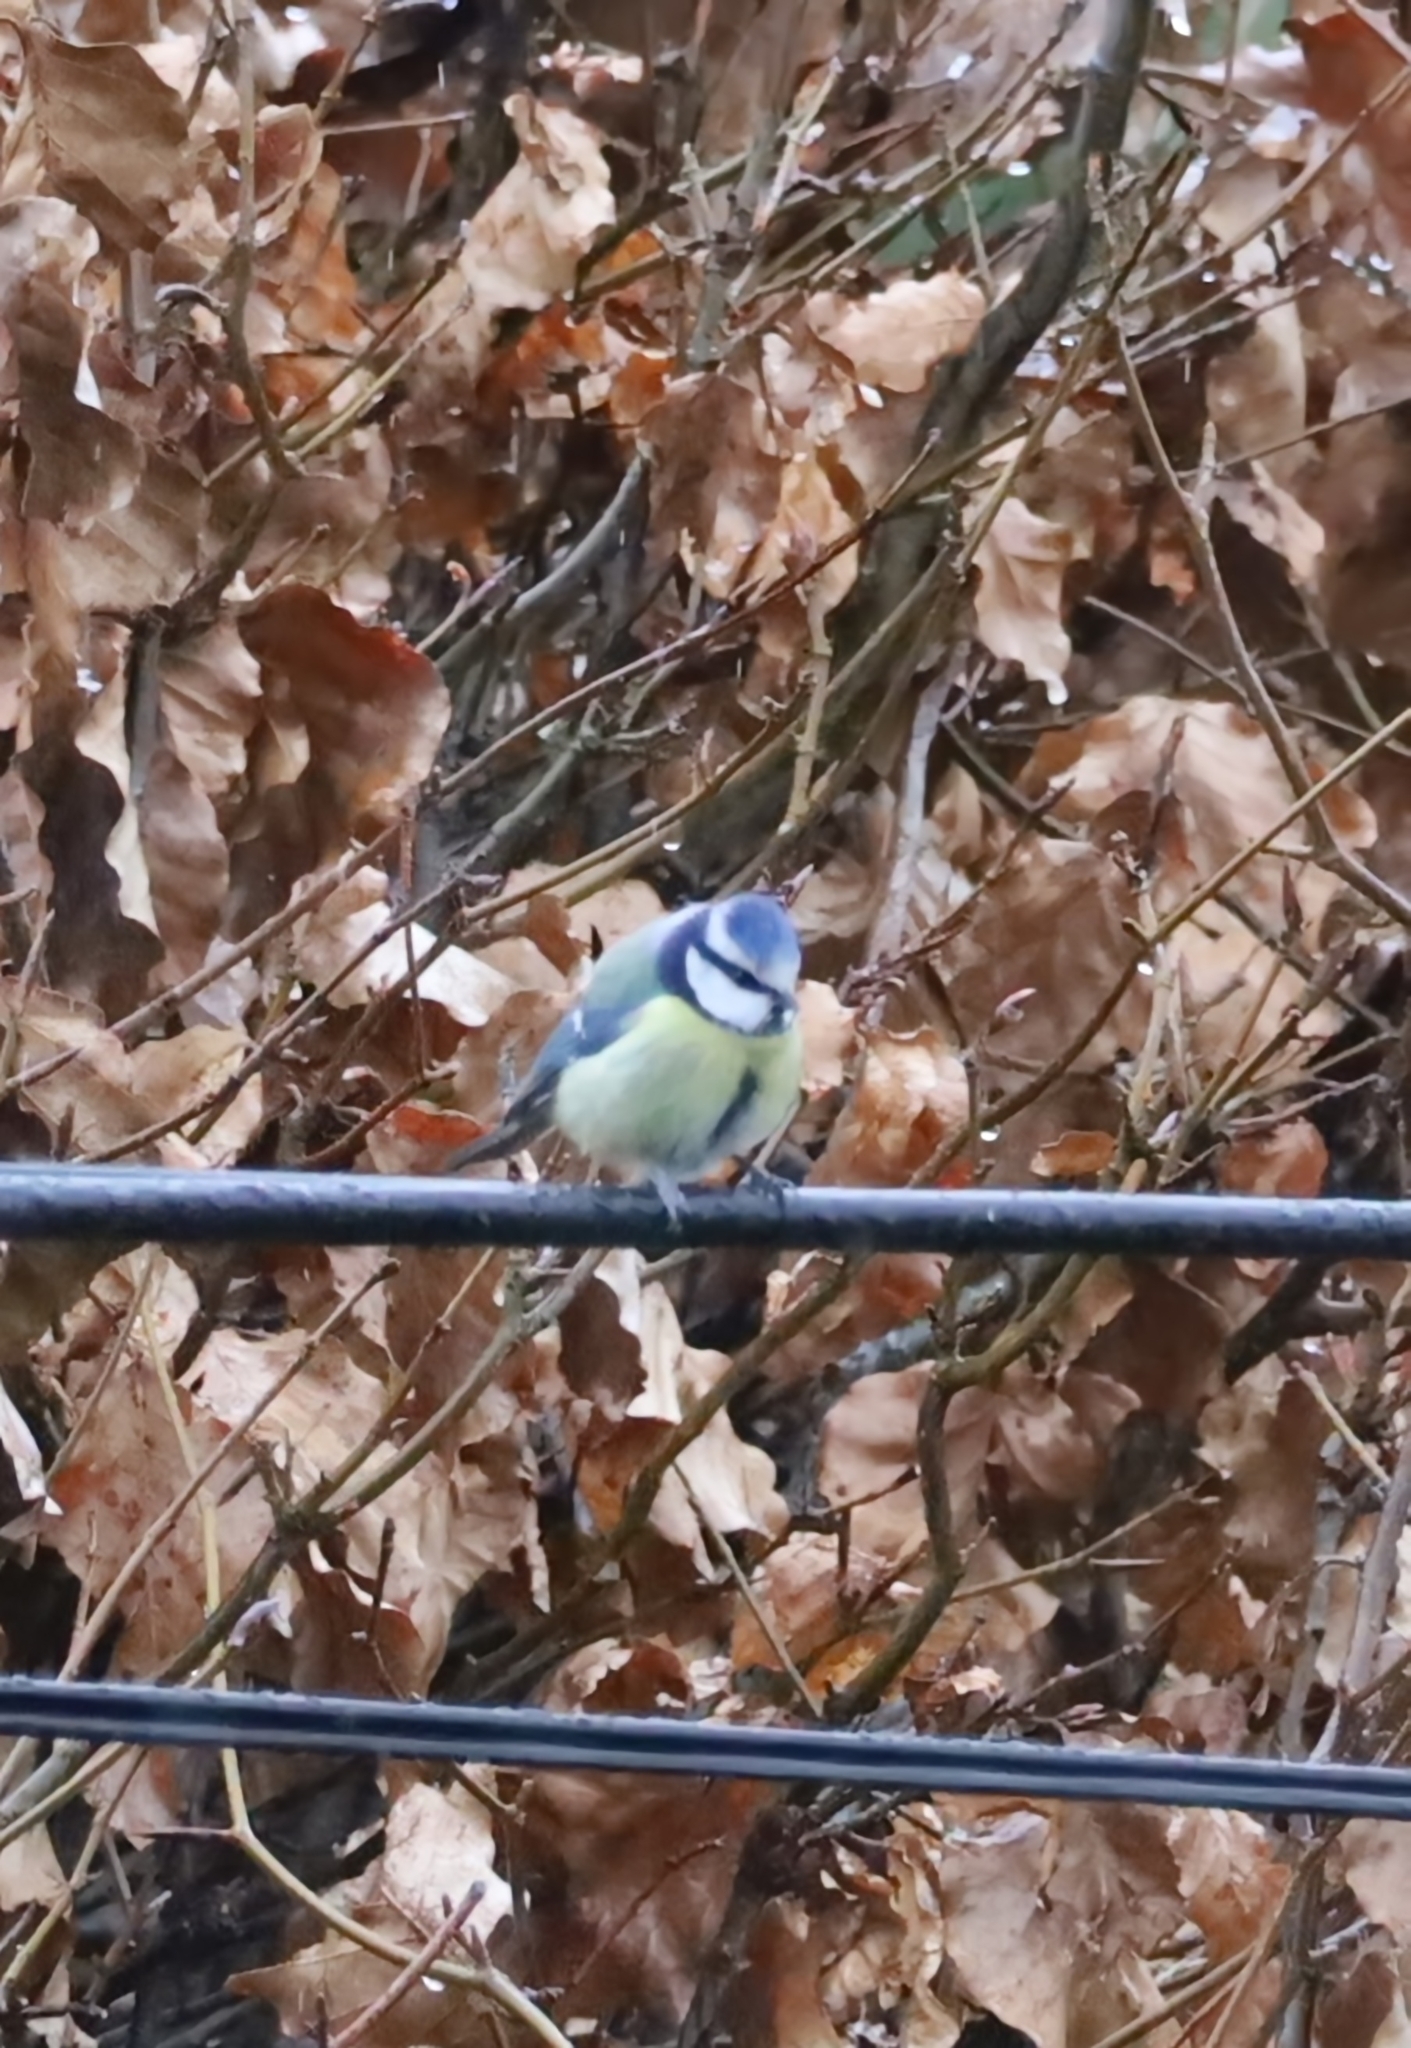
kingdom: Animalia
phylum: Chordata
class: Aves
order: Passeriformes
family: Paridae
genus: Cyanistes
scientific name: Cyanistes caeruleus
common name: Eurasian blue tit
